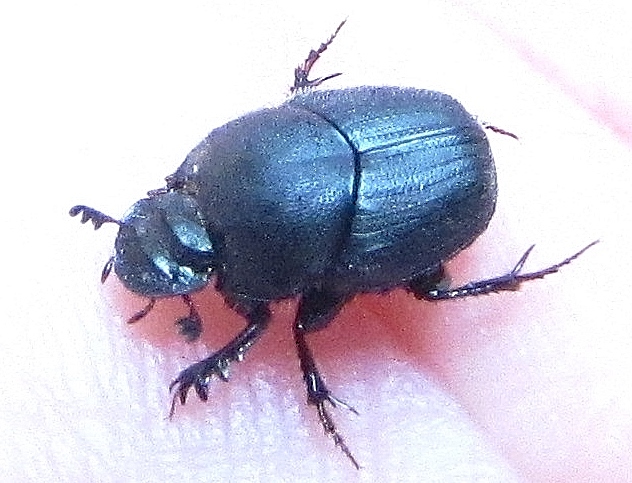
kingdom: Animalia
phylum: Arthropoda
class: Insecta
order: Coleoptera
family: Scarabaeidae
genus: Onthophagus
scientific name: Onthophagus hecate
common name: Scooped scarab
